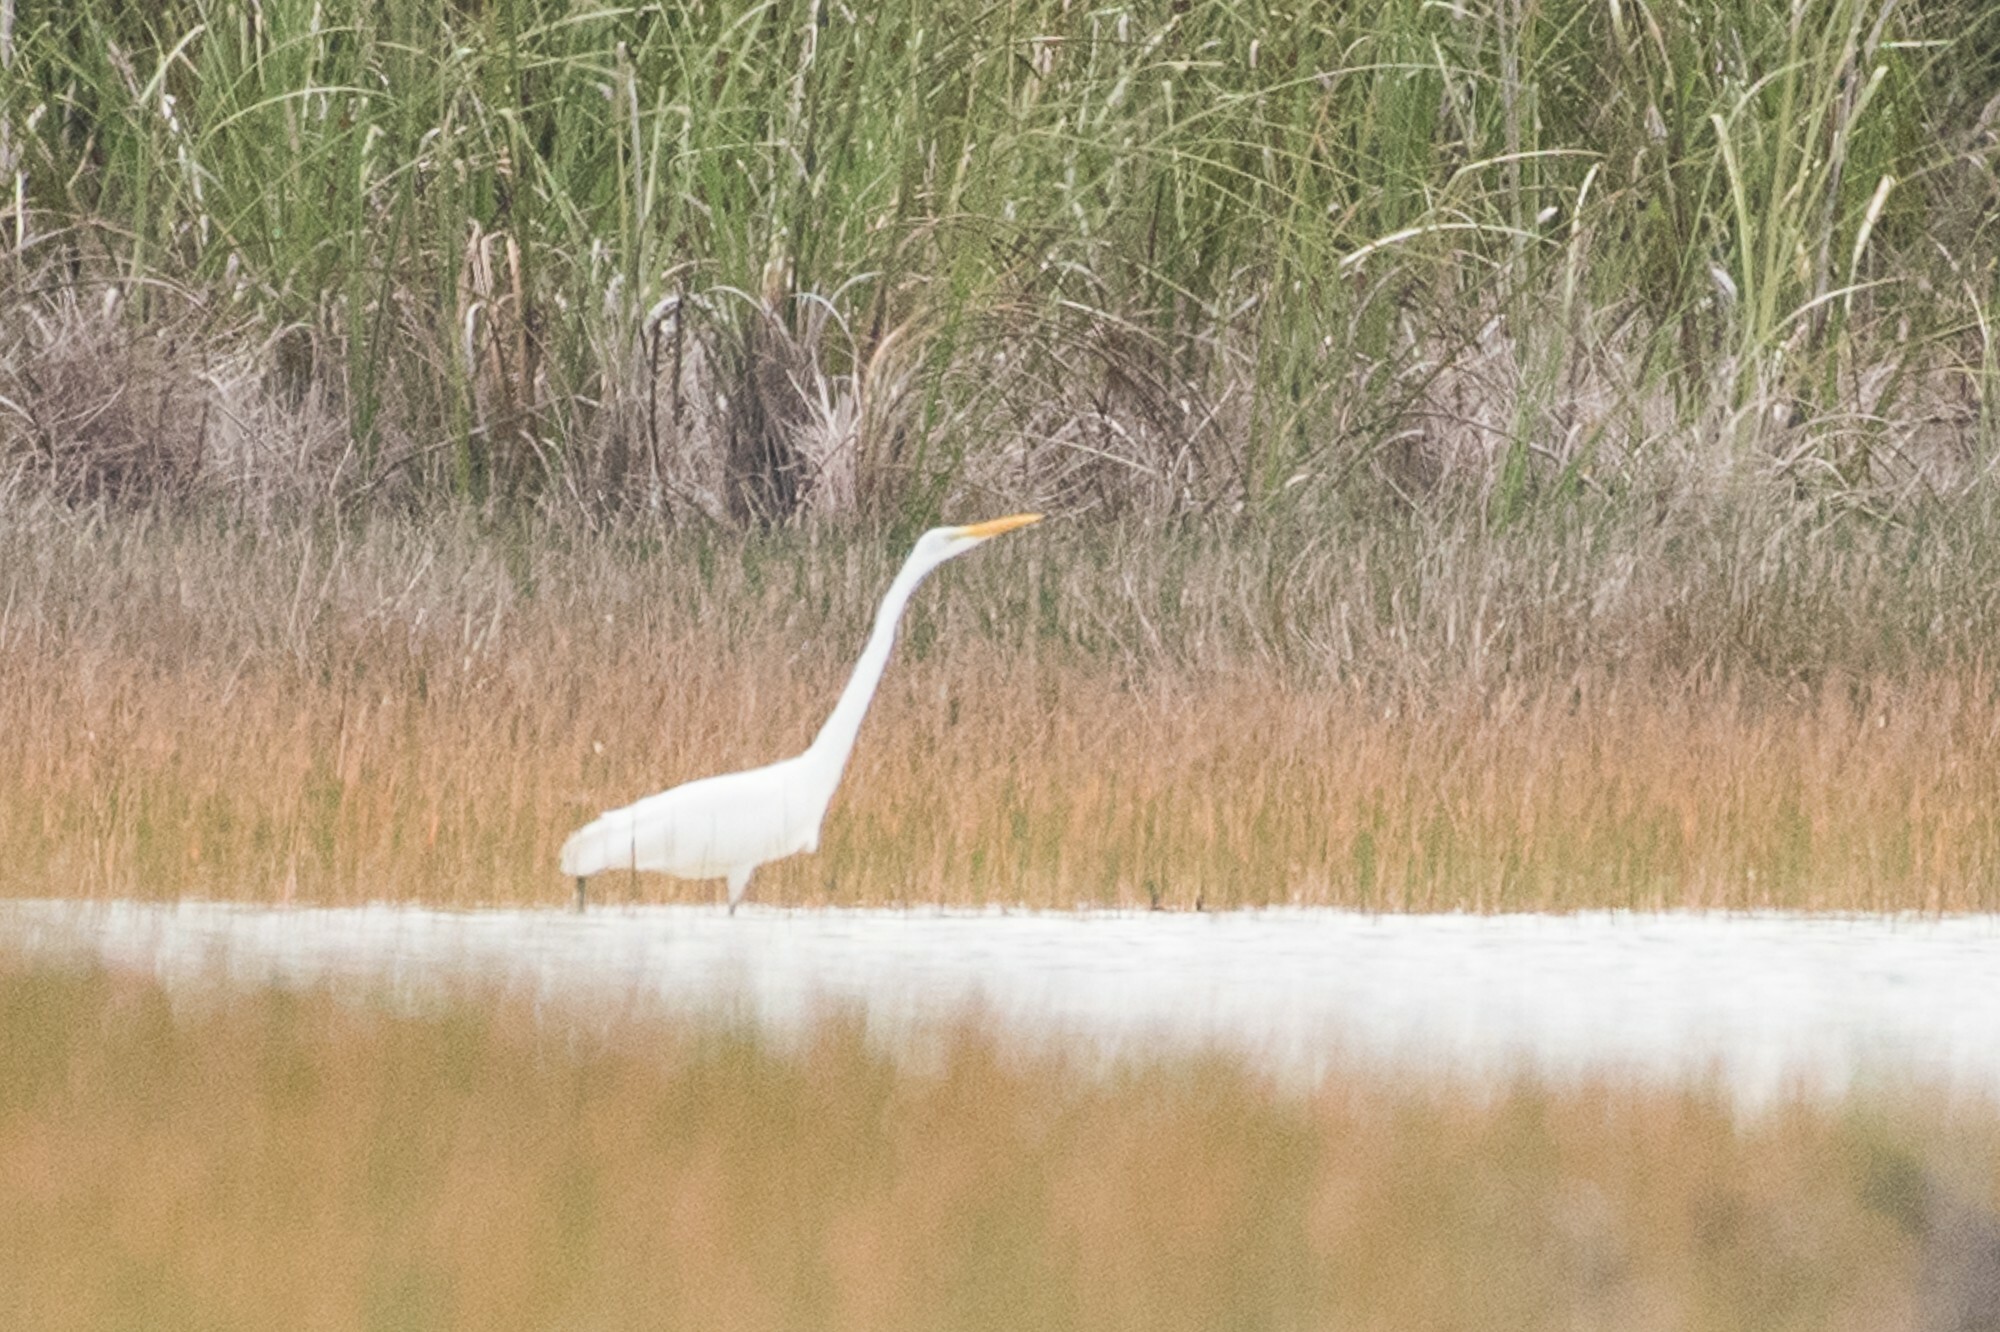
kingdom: Animalia
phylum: Chordata
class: Aves
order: Pelecaniformes
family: Ardeidae
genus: Ardea
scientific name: Ardea alba
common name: Great egret
